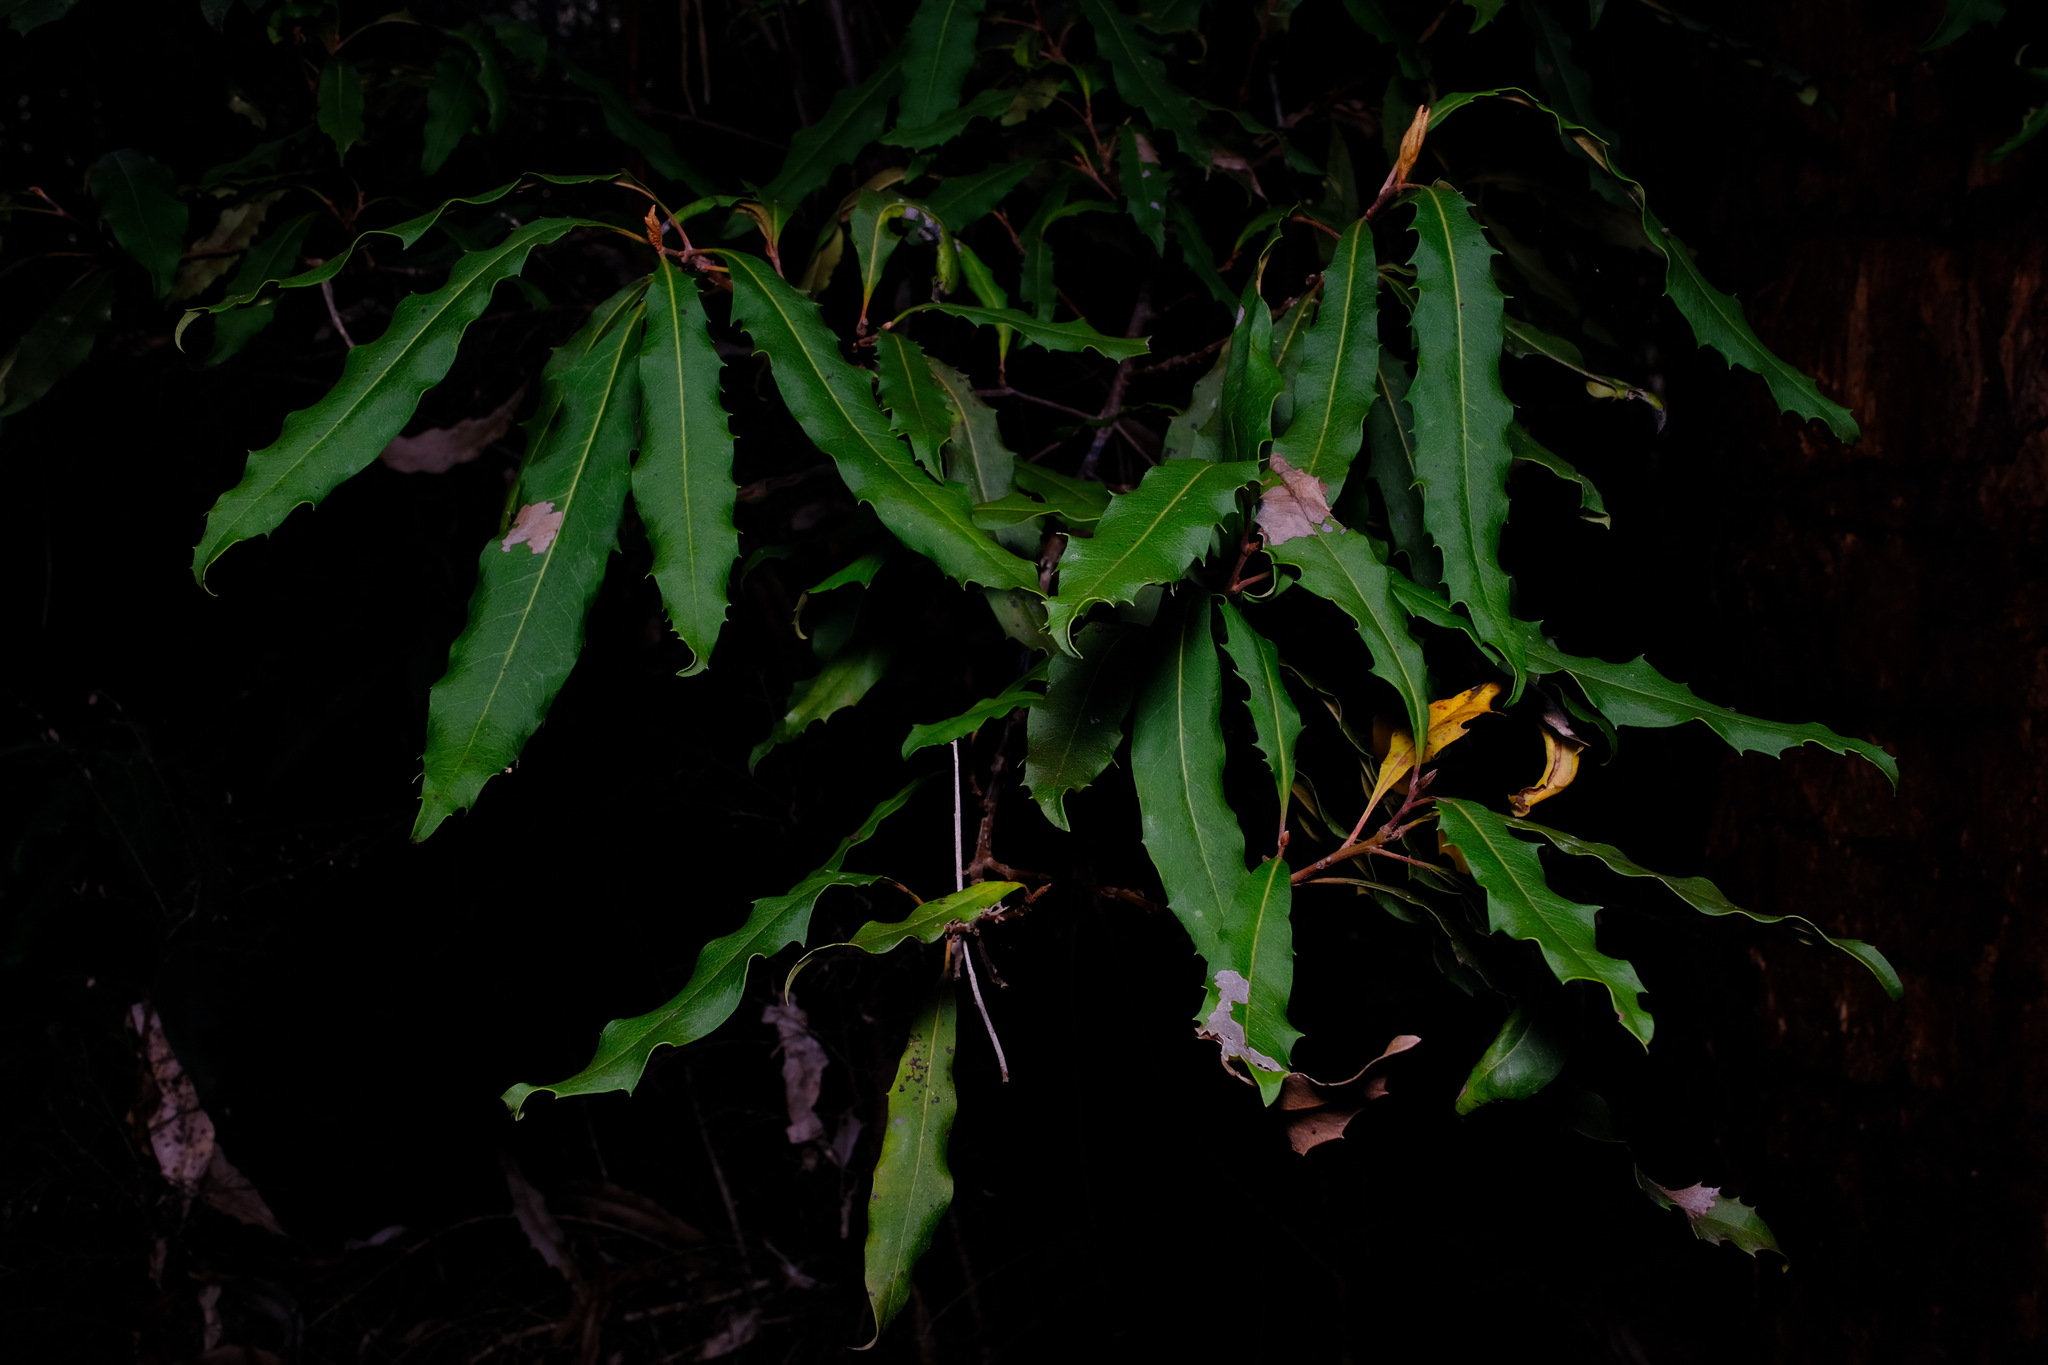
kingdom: Plantae
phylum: Tracheophyta
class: Magnoliopsida
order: Proteales
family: Proteaceae
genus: Lomatia
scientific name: Lomatia fraseri
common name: Forest lomatia
